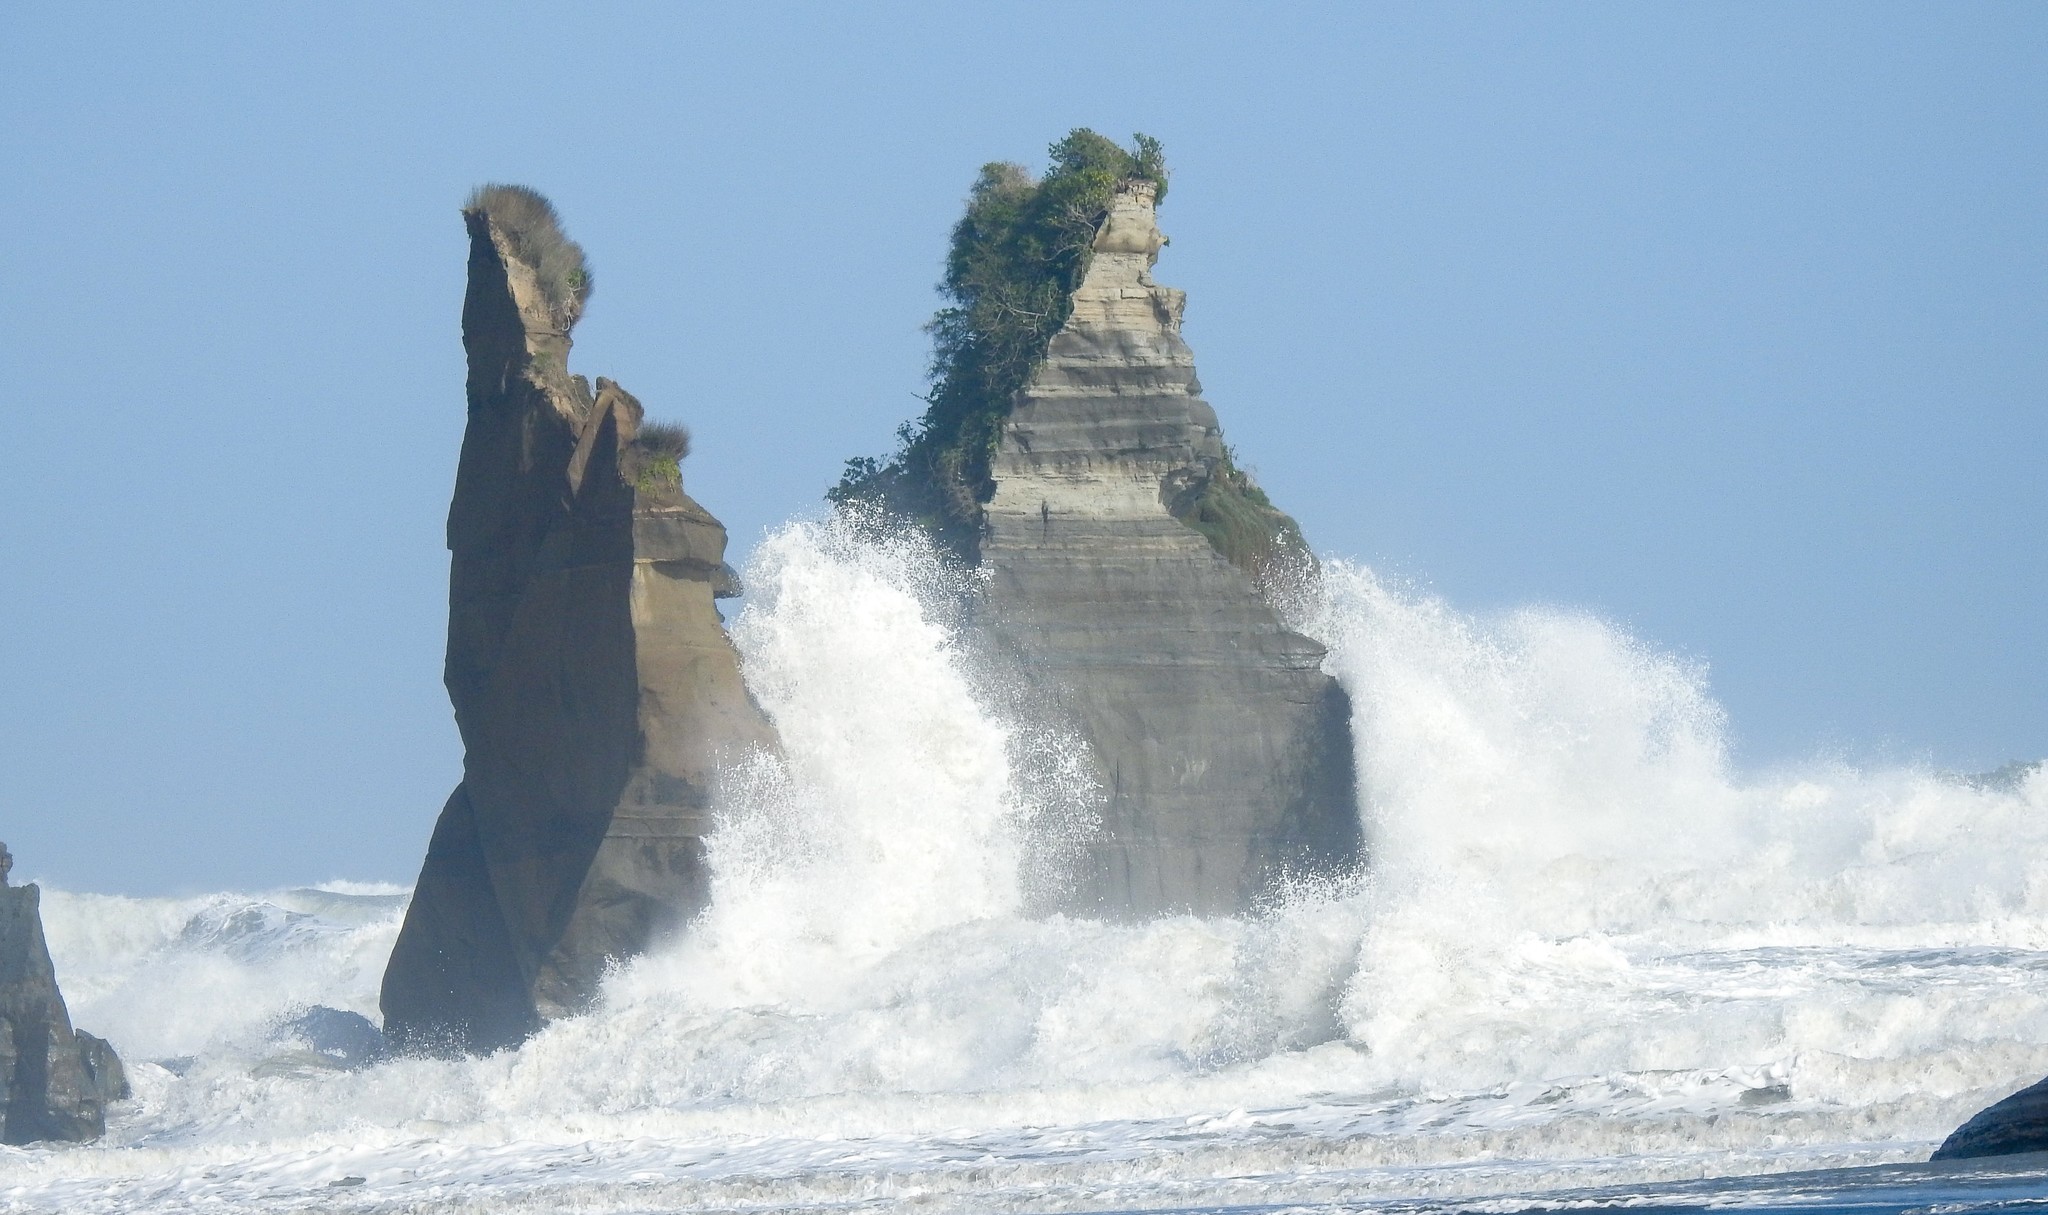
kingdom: Animalia
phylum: Chordata
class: Aves
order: Charadriiformes
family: Charadriidae
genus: Anarhynchus
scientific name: Anarhynchus
